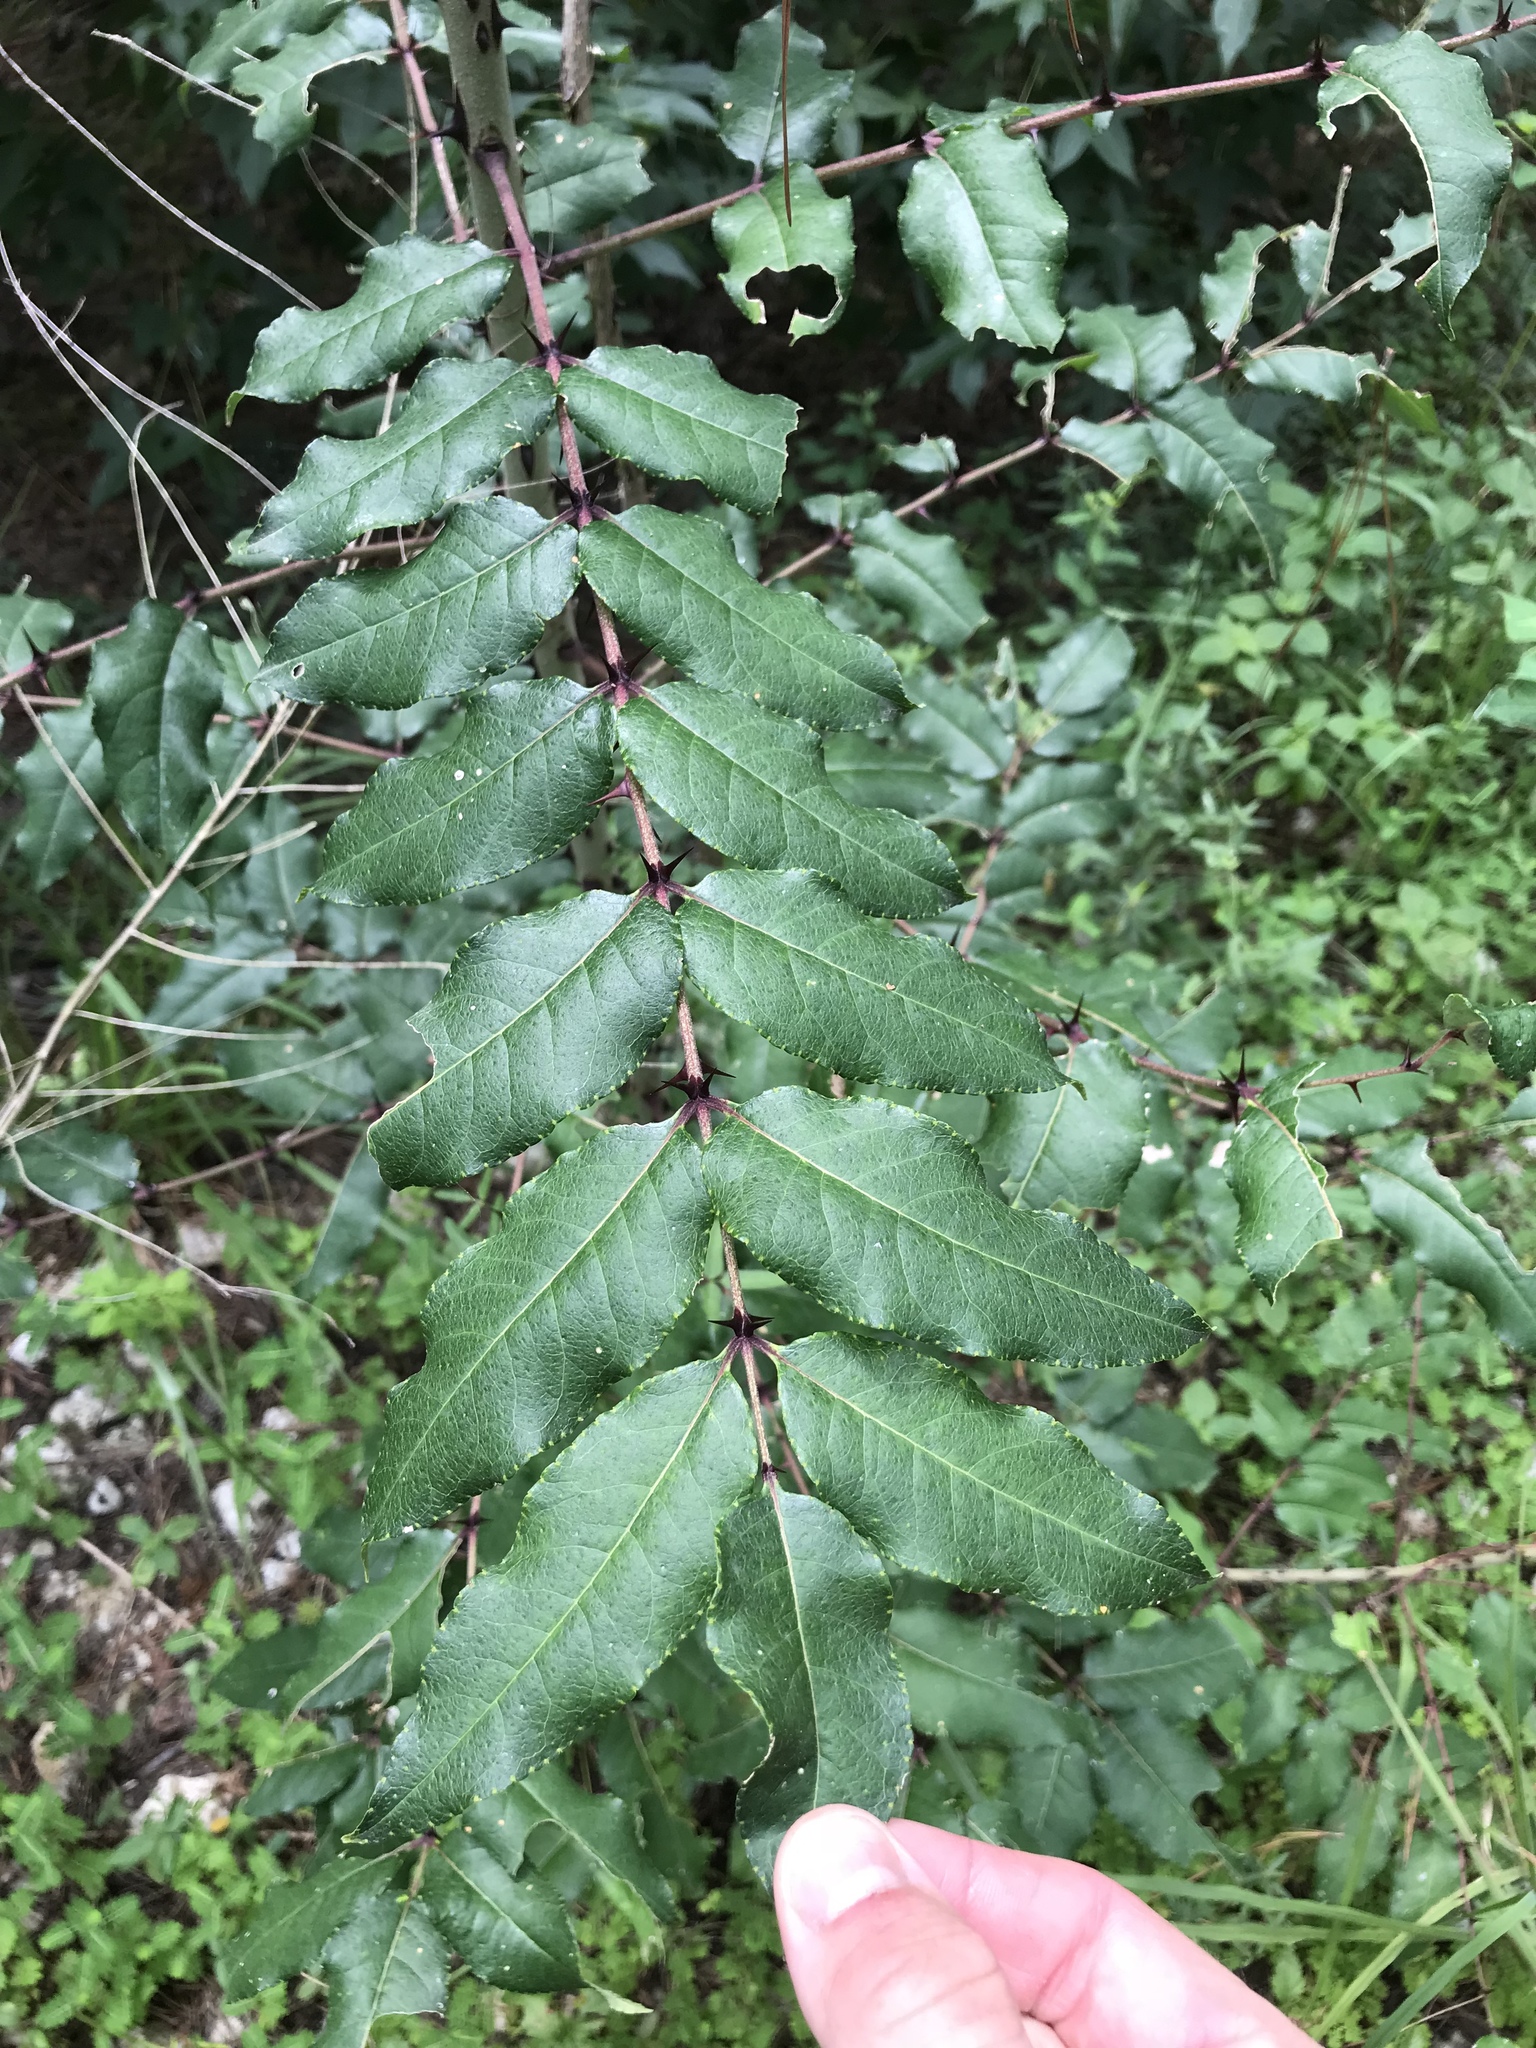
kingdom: Plantae
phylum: Tracheophyta
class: Magnoliopsida
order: Sapindales
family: Rutaceae
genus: Zanthoxylum
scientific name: Zanthoxylum clava-herculis
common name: Hercules'-club
